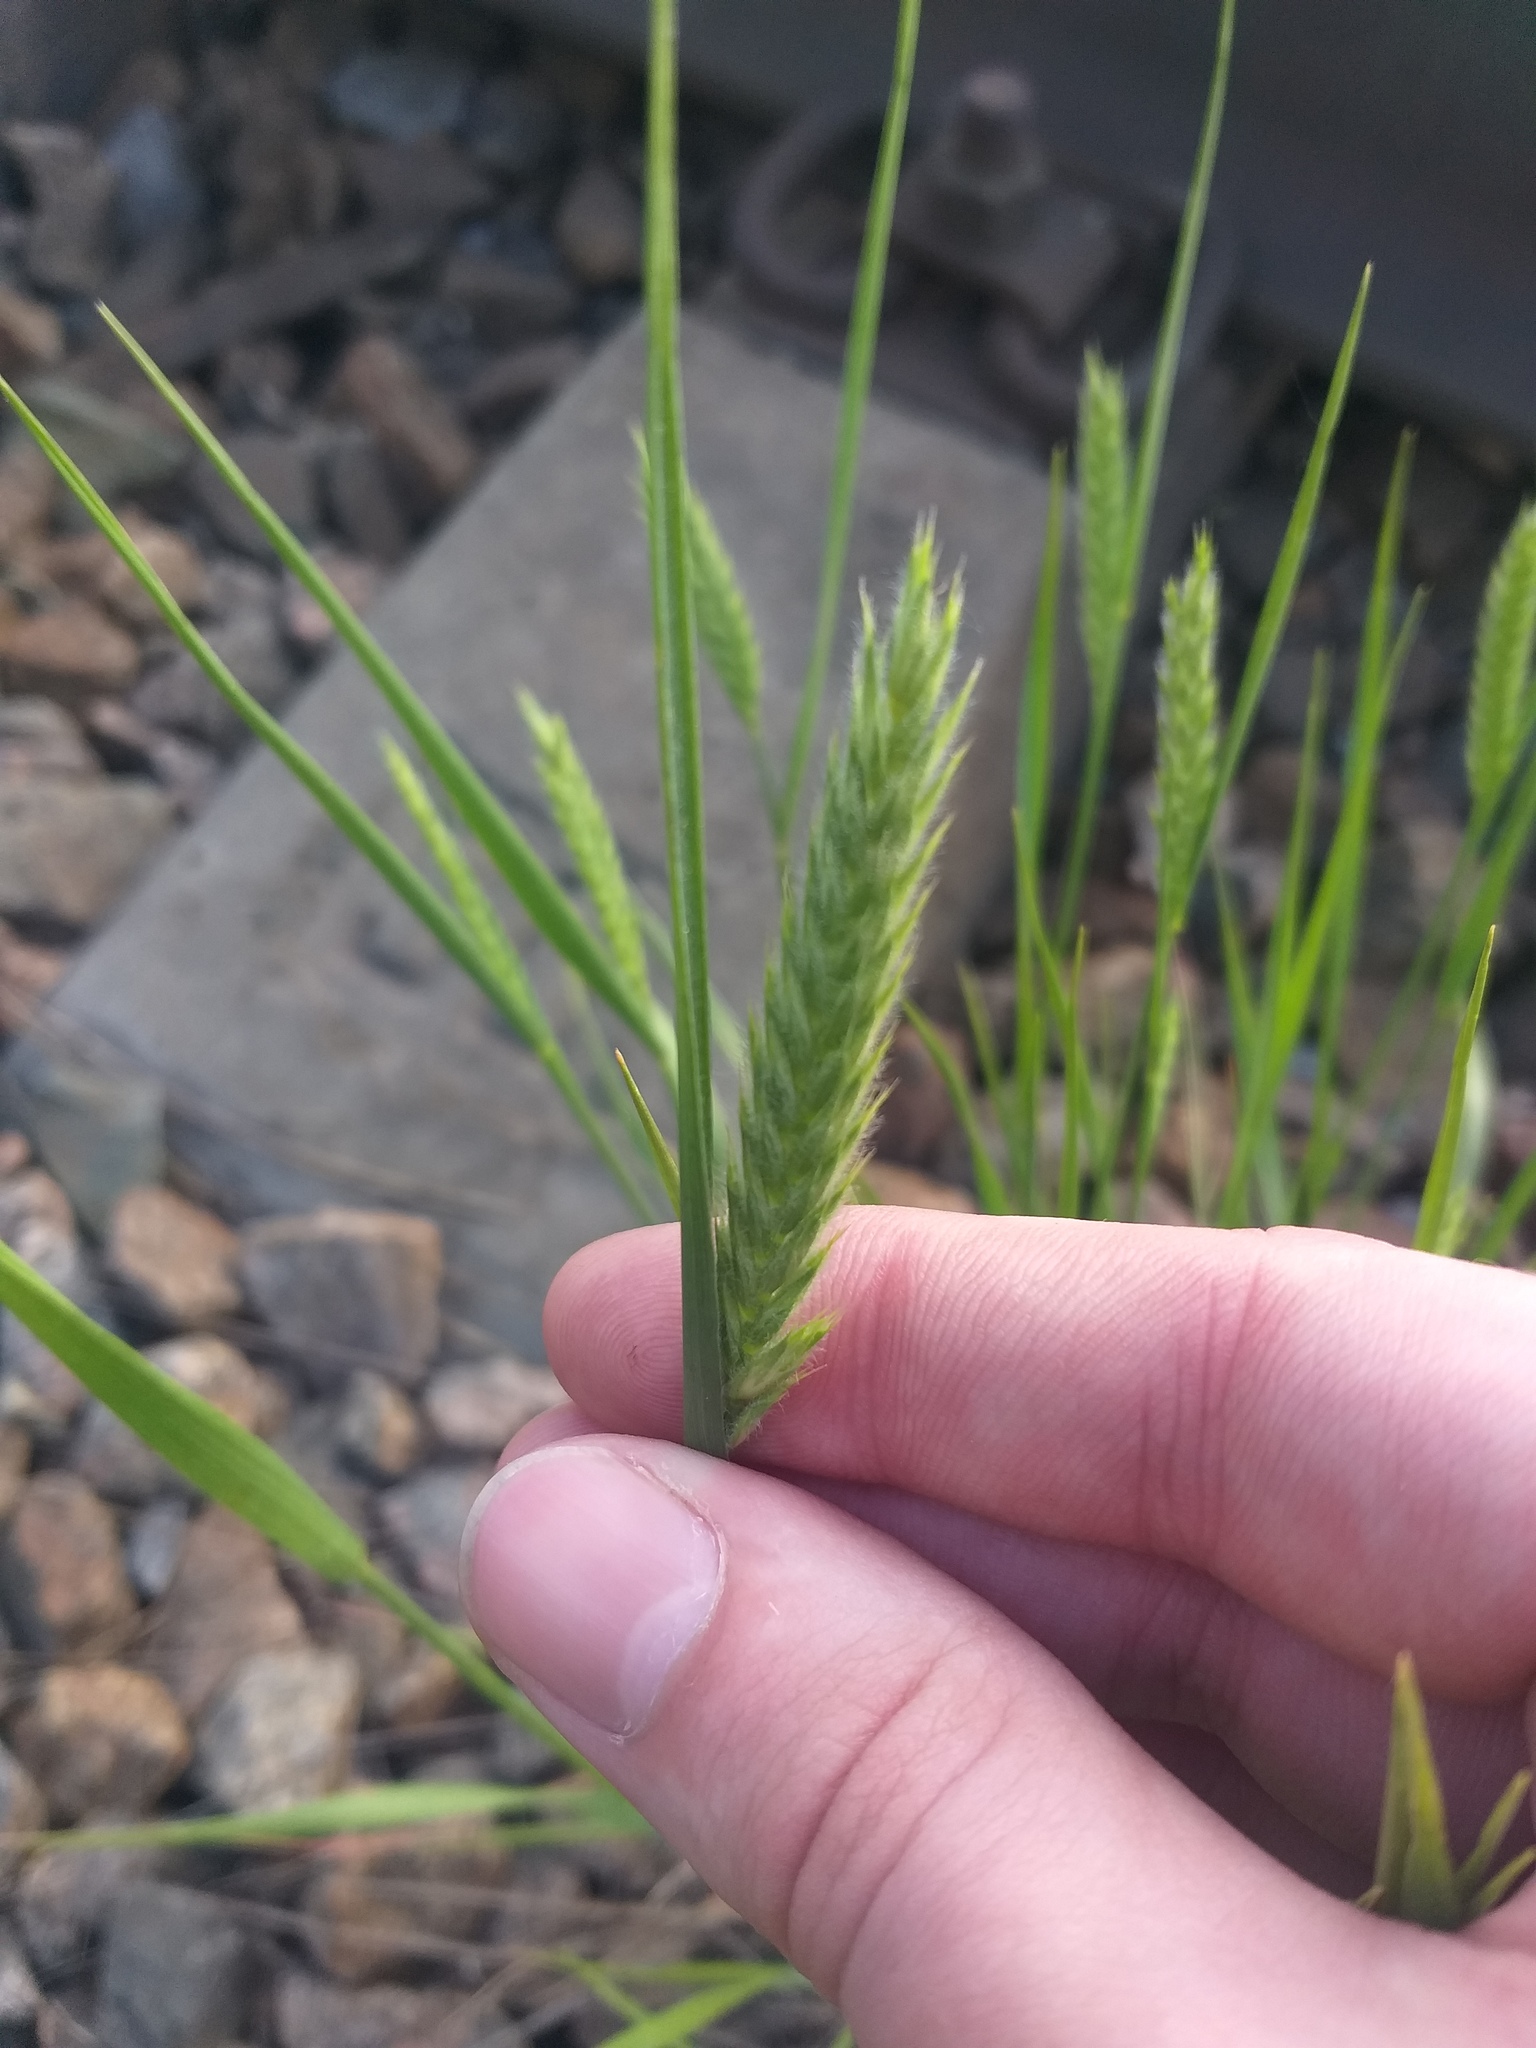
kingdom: Plantae
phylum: Tracheophyta
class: Liliopsida
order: Poales
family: Poaceae
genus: Agropyron
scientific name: Agropyron cristatum
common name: Crested wheatgrass
